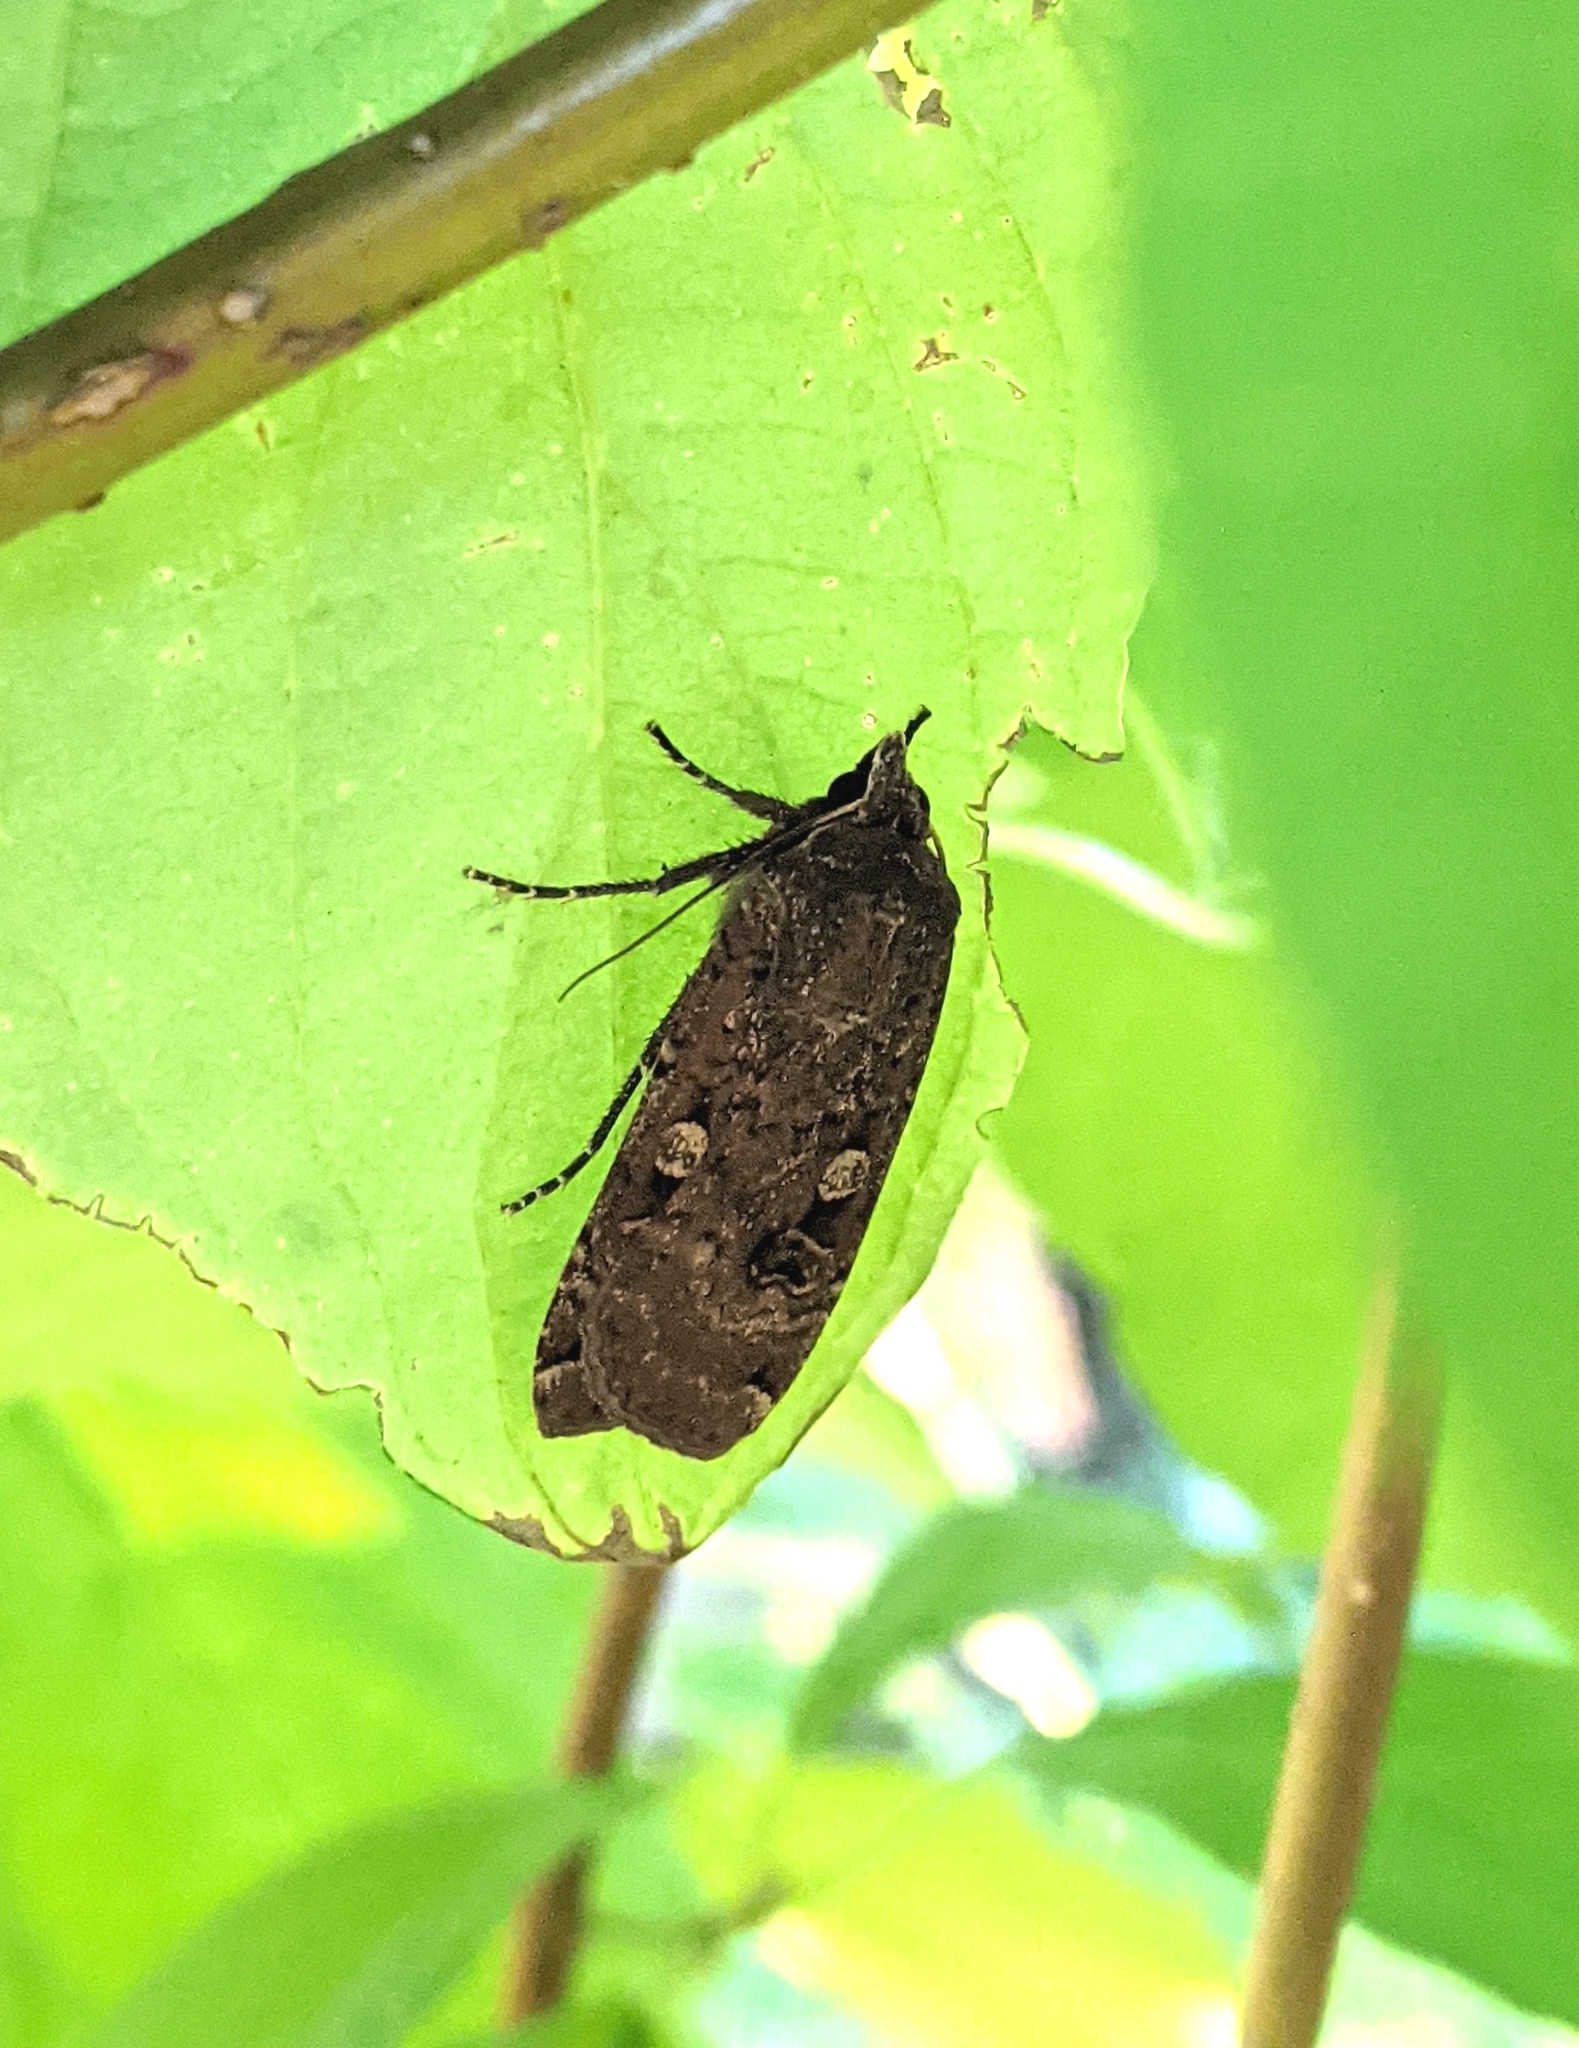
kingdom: Animalia
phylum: Arthropoda
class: Insecta
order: Lepidoptera
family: Noctuidae
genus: Noctua
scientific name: Noctua pronuba
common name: Large yellow underwing
